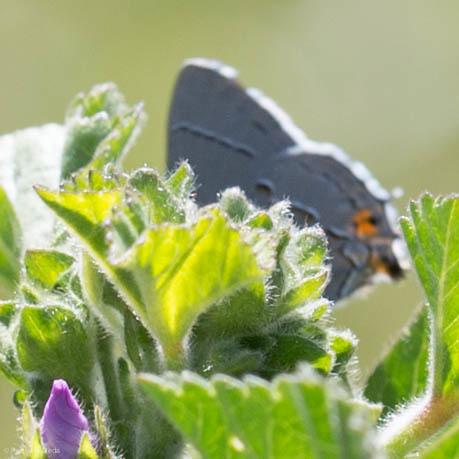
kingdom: Animalia
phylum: Arthropoda
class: Insecta
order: Lepidoptera
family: Lycaenidae
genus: Strymon
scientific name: Strymon melinus
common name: Gray hairstreak
